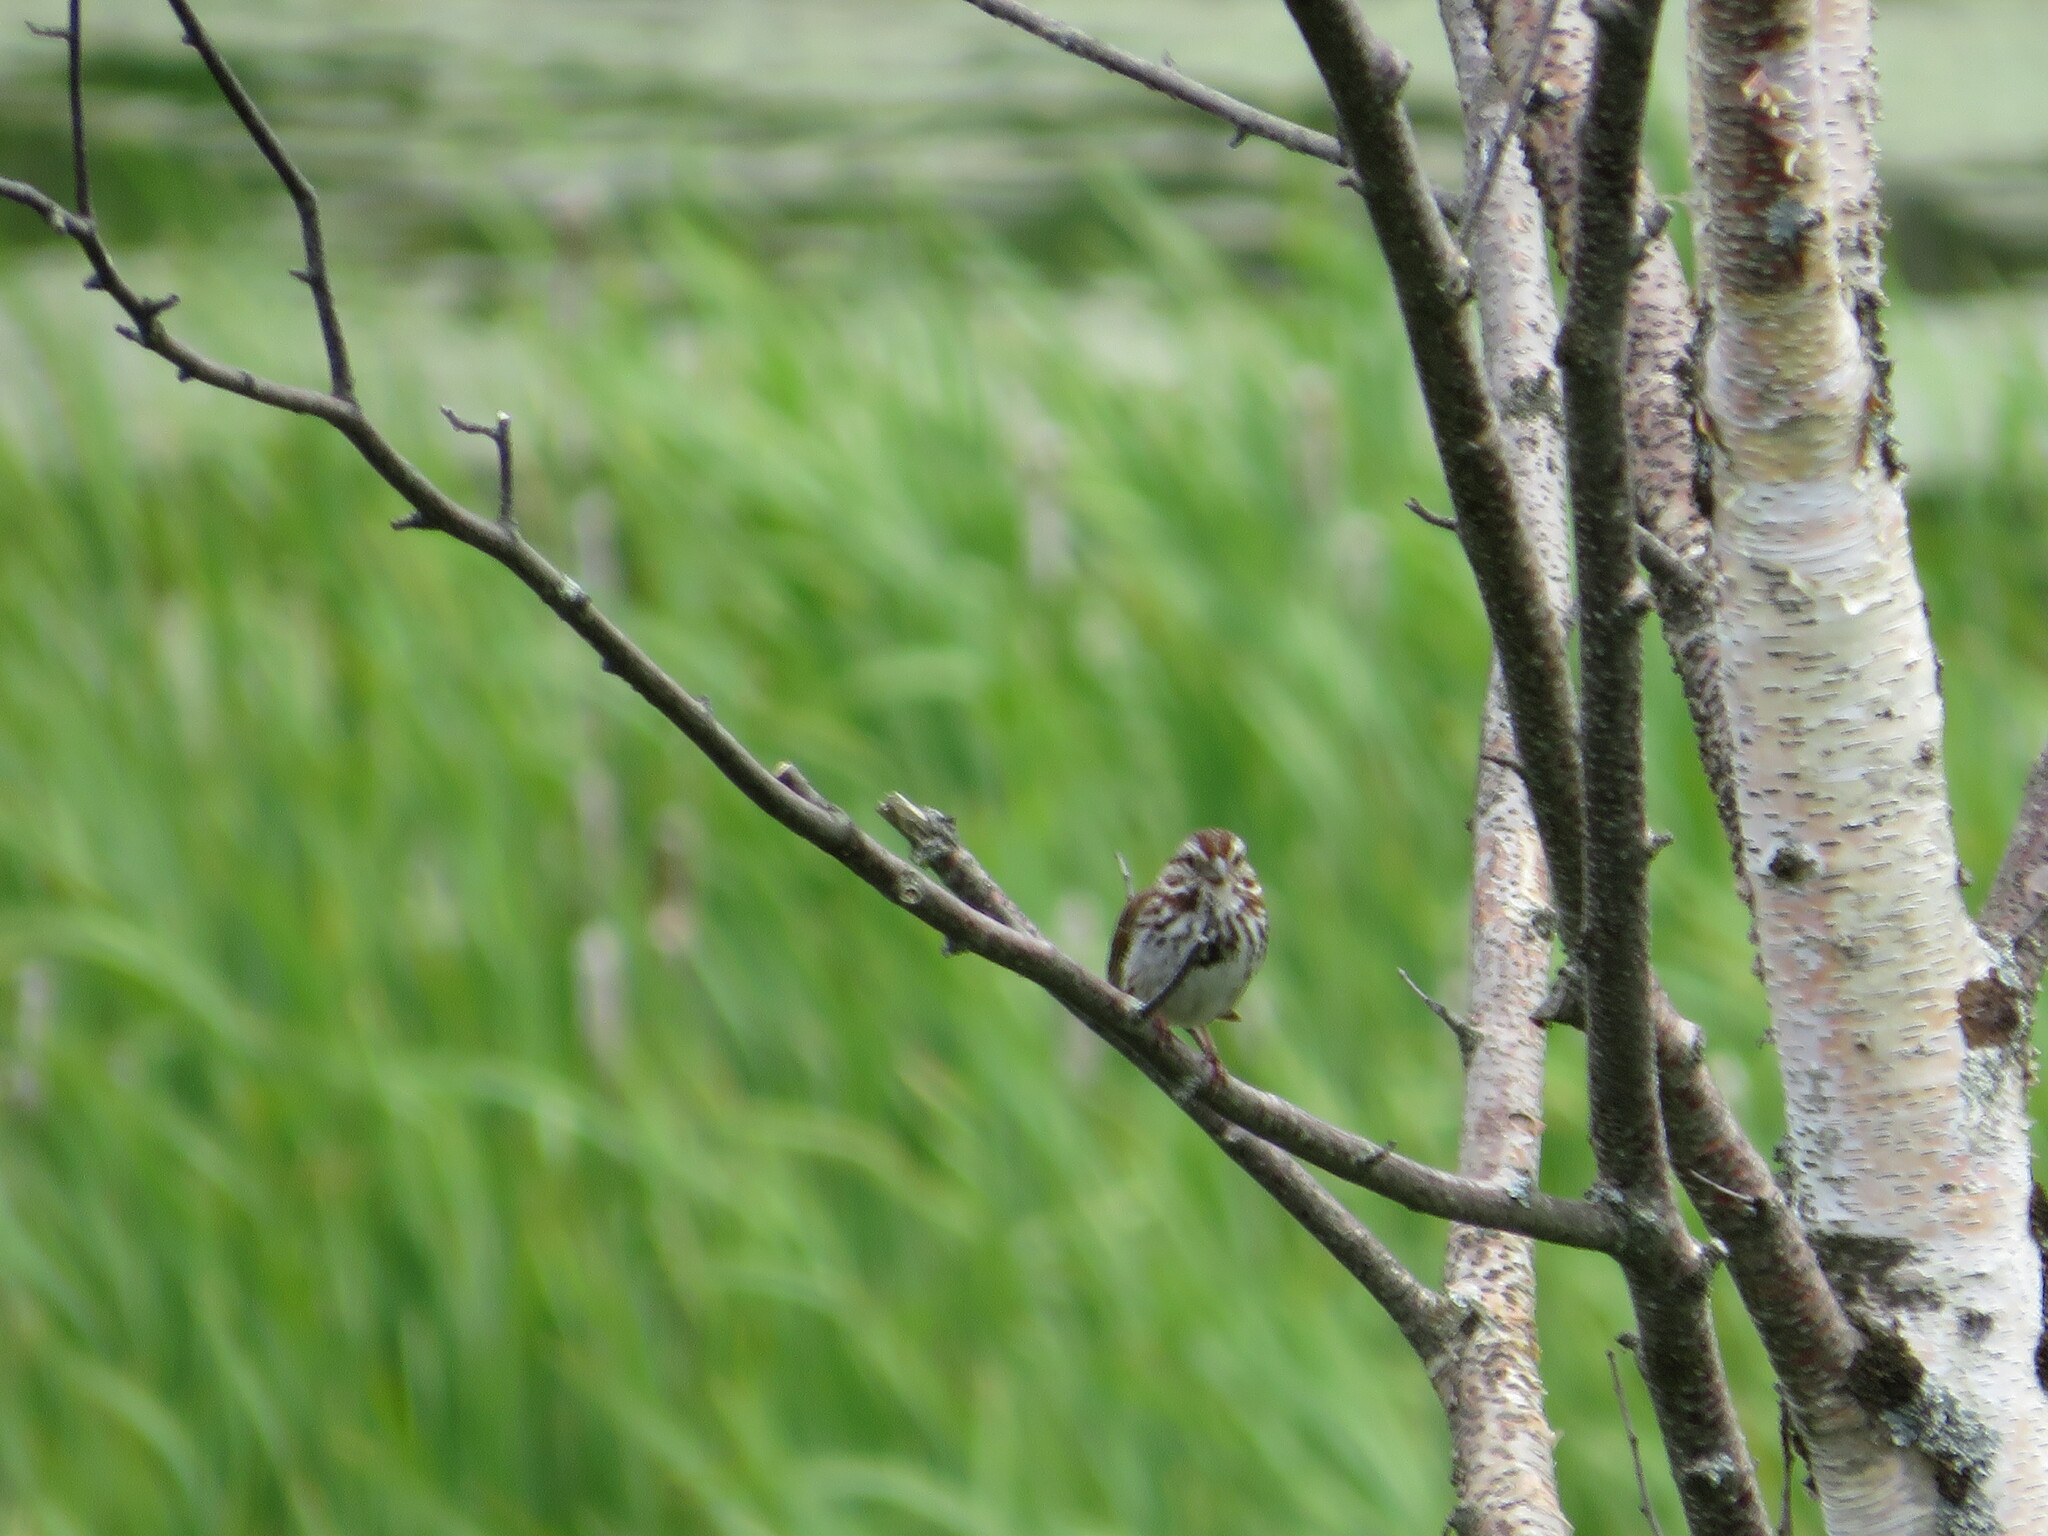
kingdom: Animalia
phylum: Chordata
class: Aves
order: Passeriformes
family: Passerellidae
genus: Melospiza
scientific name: Melospiza melodia
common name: Song sparrow
